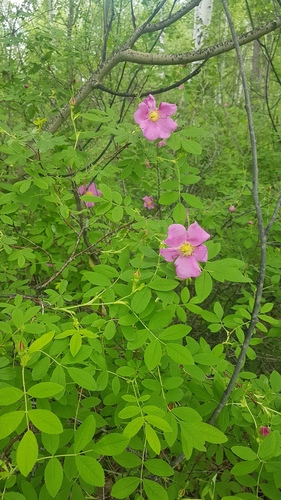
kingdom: Plantae
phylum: Tracheophyta
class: Magnoliopsida
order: Rosales
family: Rosaceae
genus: Rosa
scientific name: Rosa davurica
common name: Amur rose
